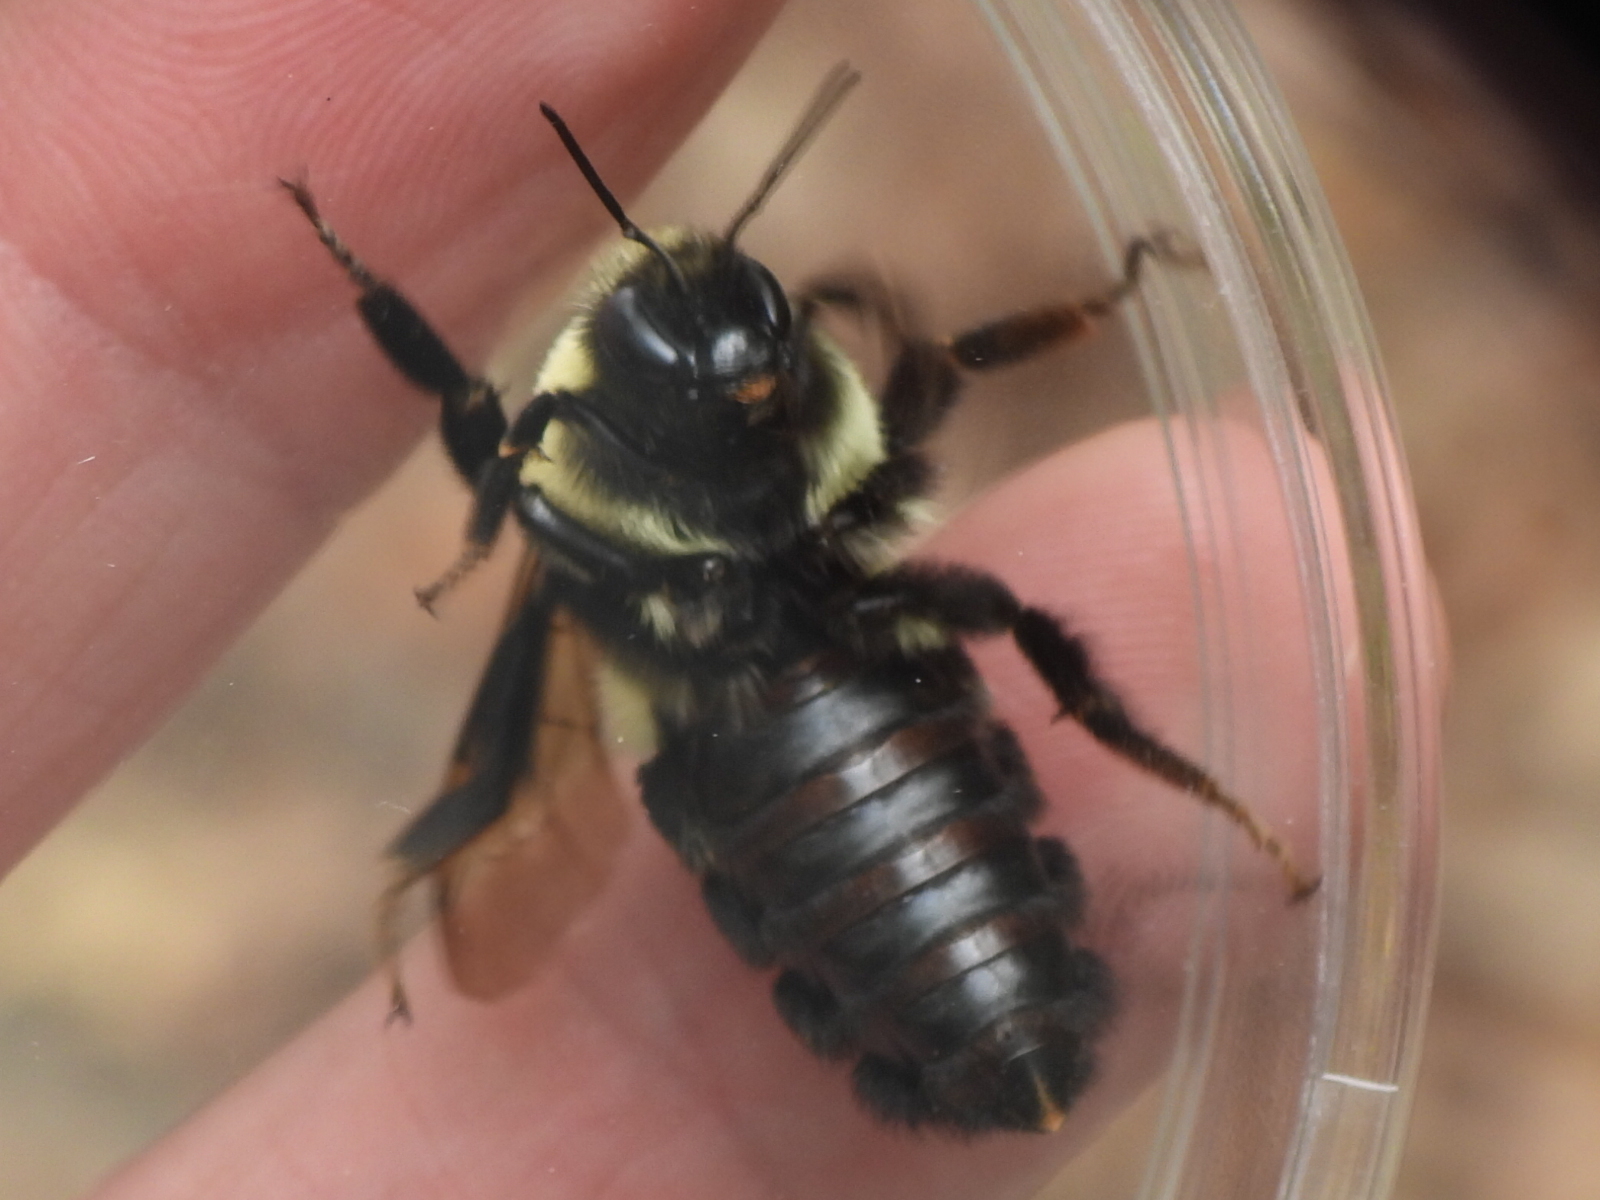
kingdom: Animalia
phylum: Arthropoda
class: Insecta
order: Hymenoptera
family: Apidae
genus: Bombus
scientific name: Bombus impatiens
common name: Common eastern bumble bee
